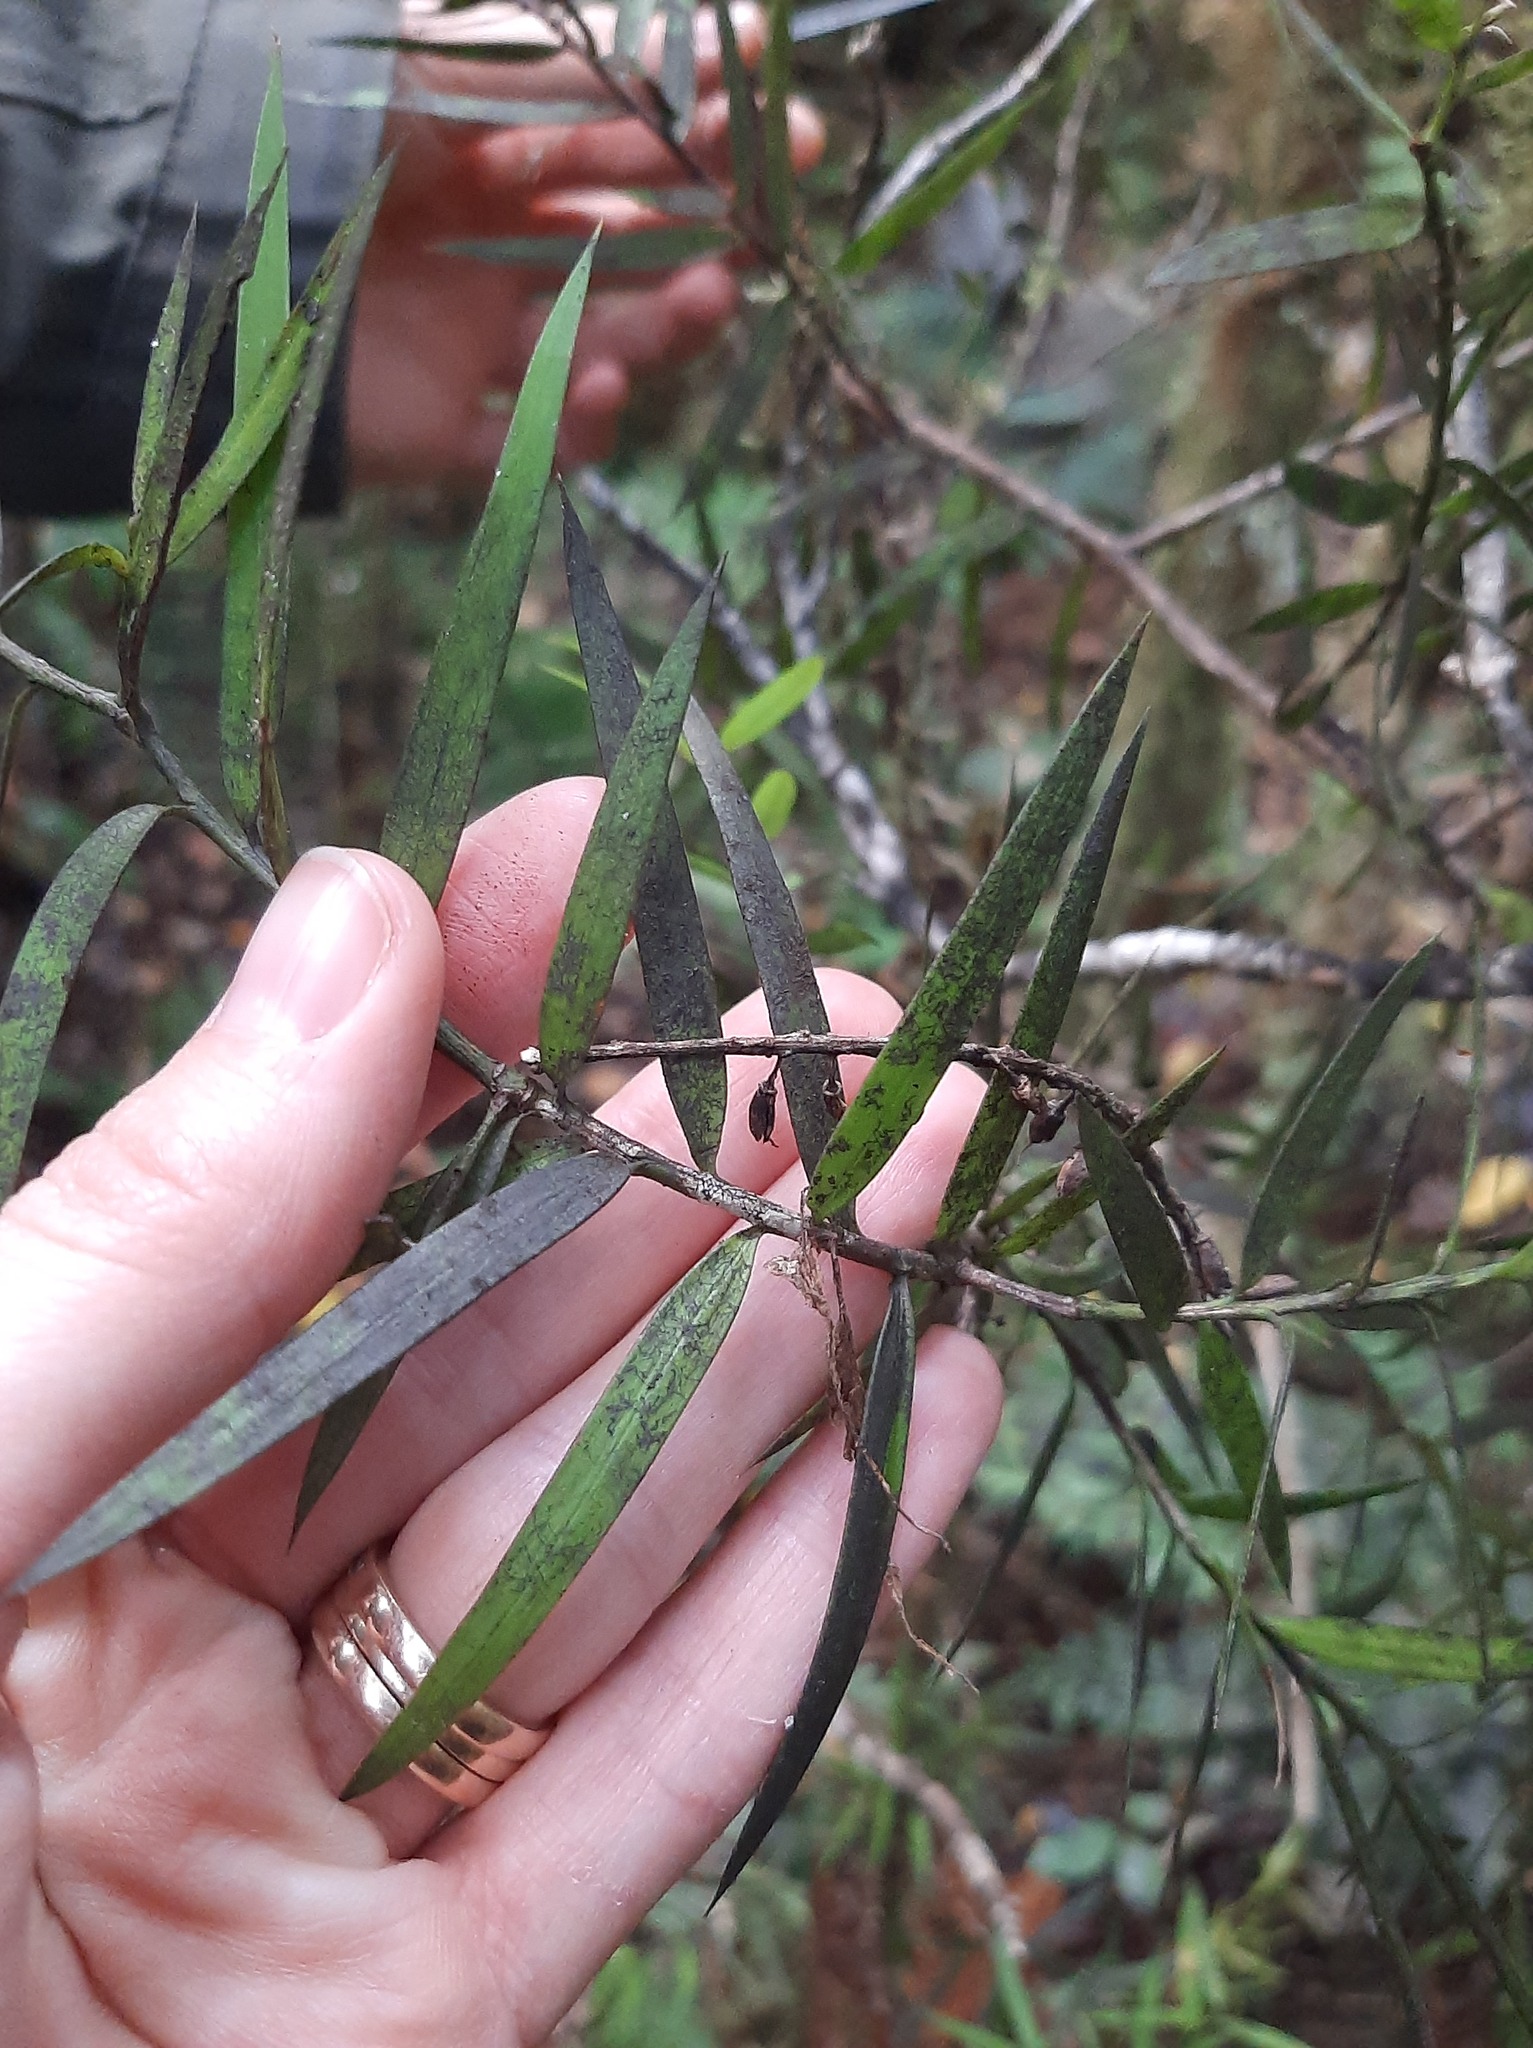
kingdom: Plantae
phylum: Tracheophyta
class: Pinopsida
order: Pinales
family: Podocarpaceae
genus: Podocarpus
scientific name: Podocarpus laetus
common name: Hall's totara
